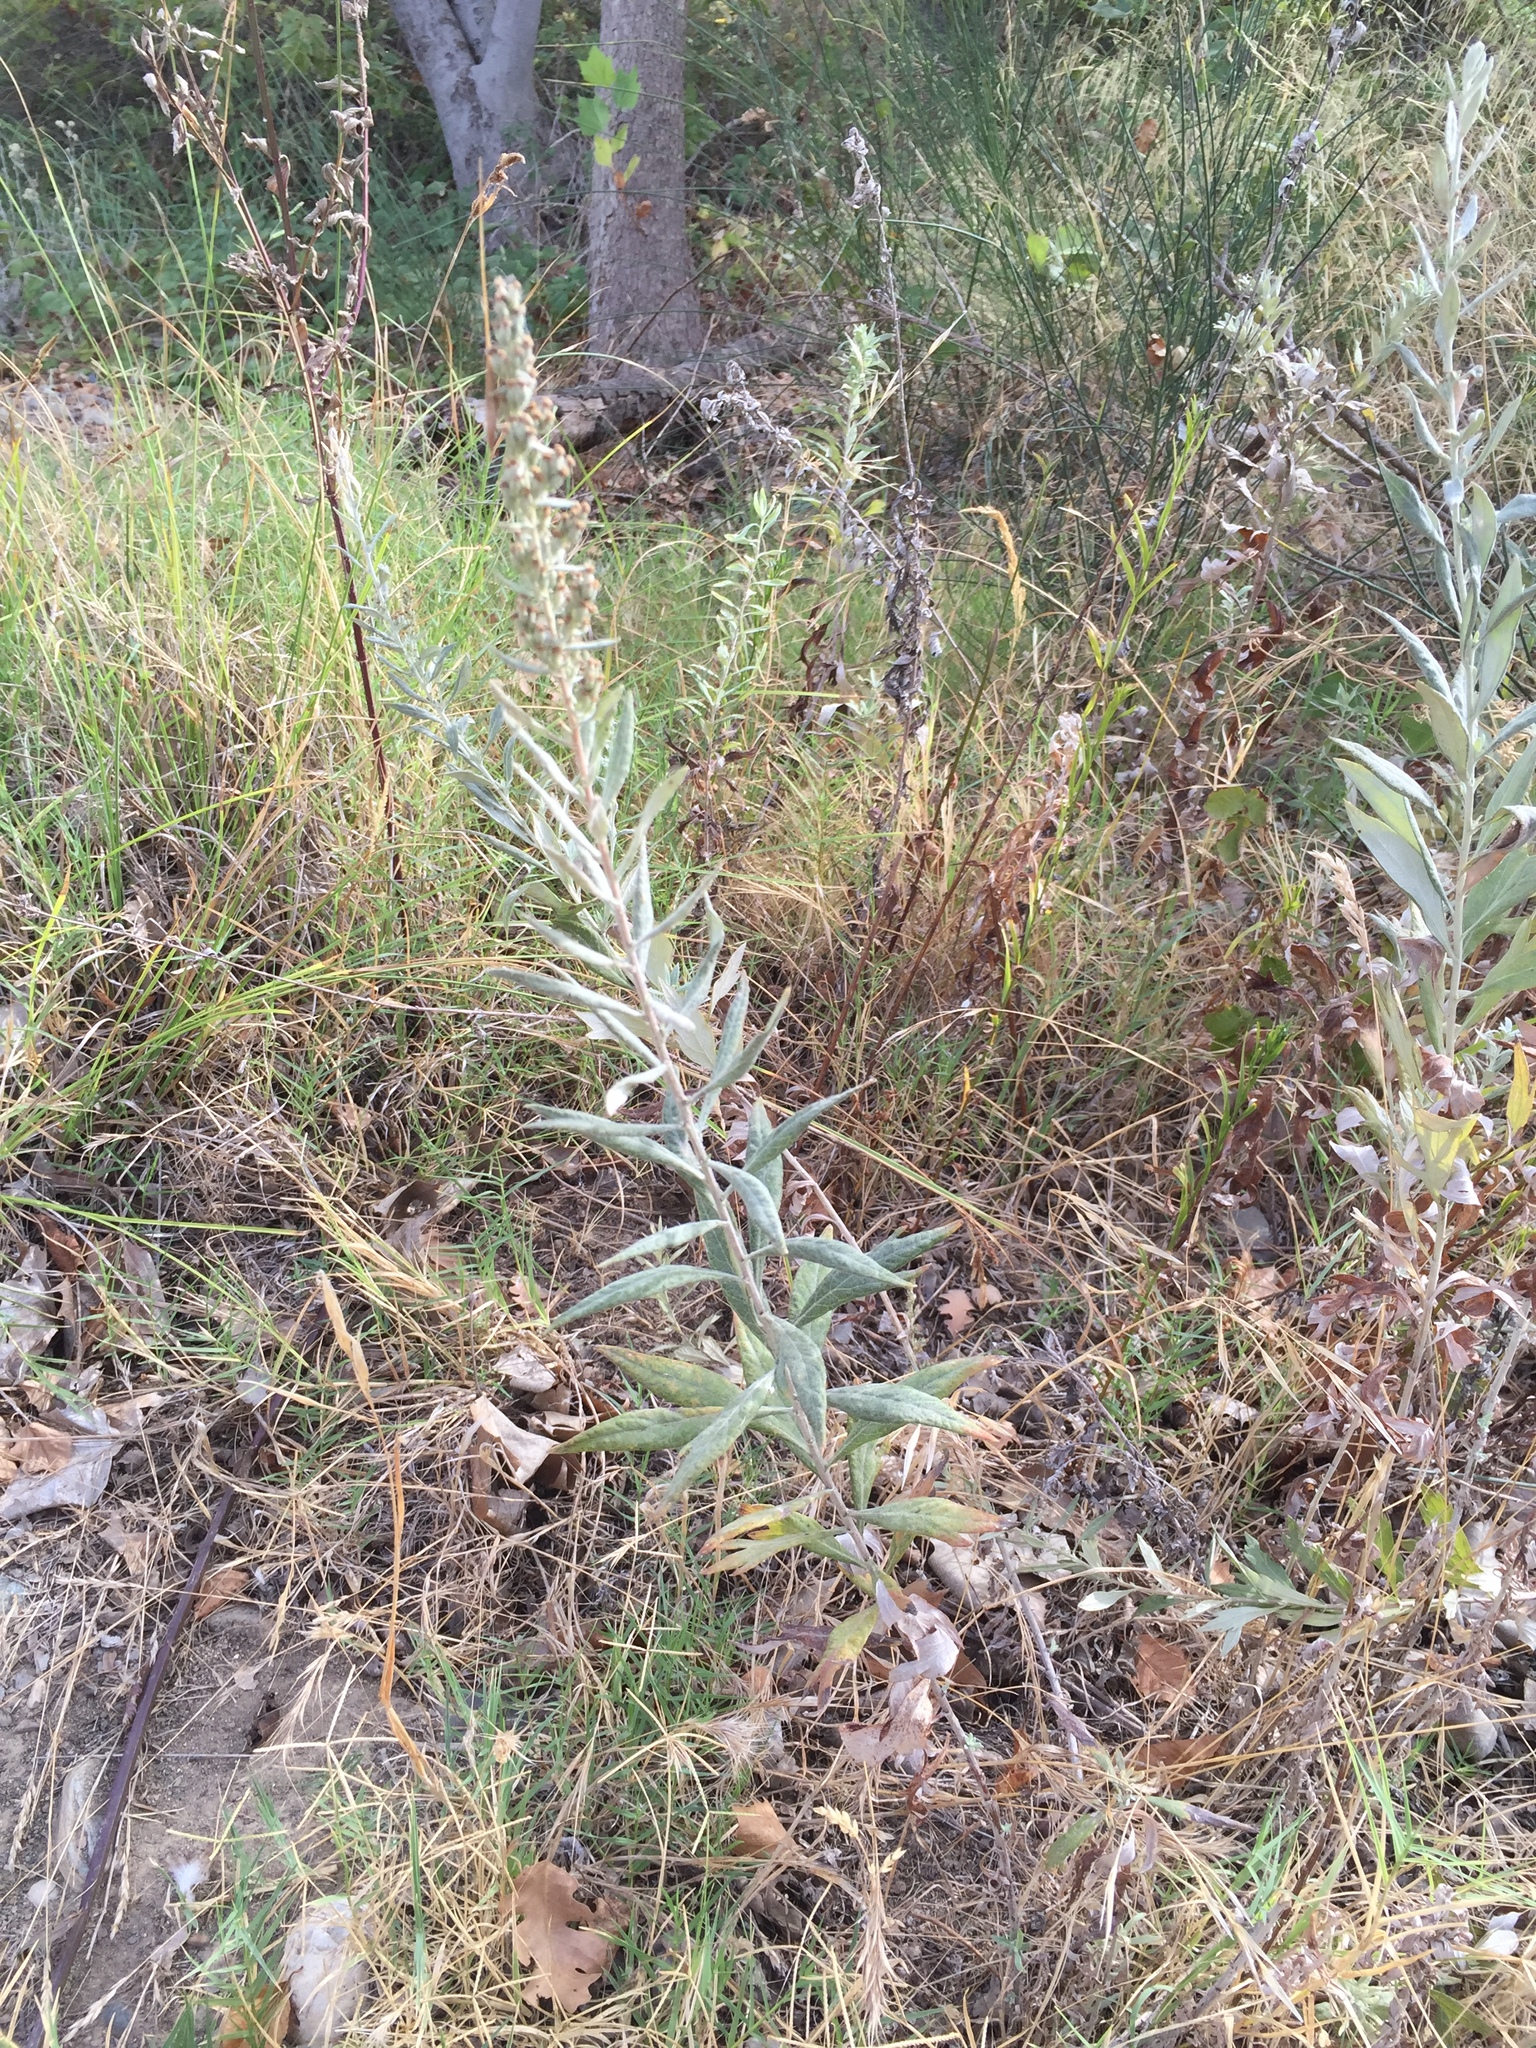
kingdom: Plantae
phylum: Tracheophyta
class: Magnoliopsida
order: Asterales
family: Asteraceae
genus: Artemisia
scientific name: Artemisia douglasiana
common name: Northwest mugwort
